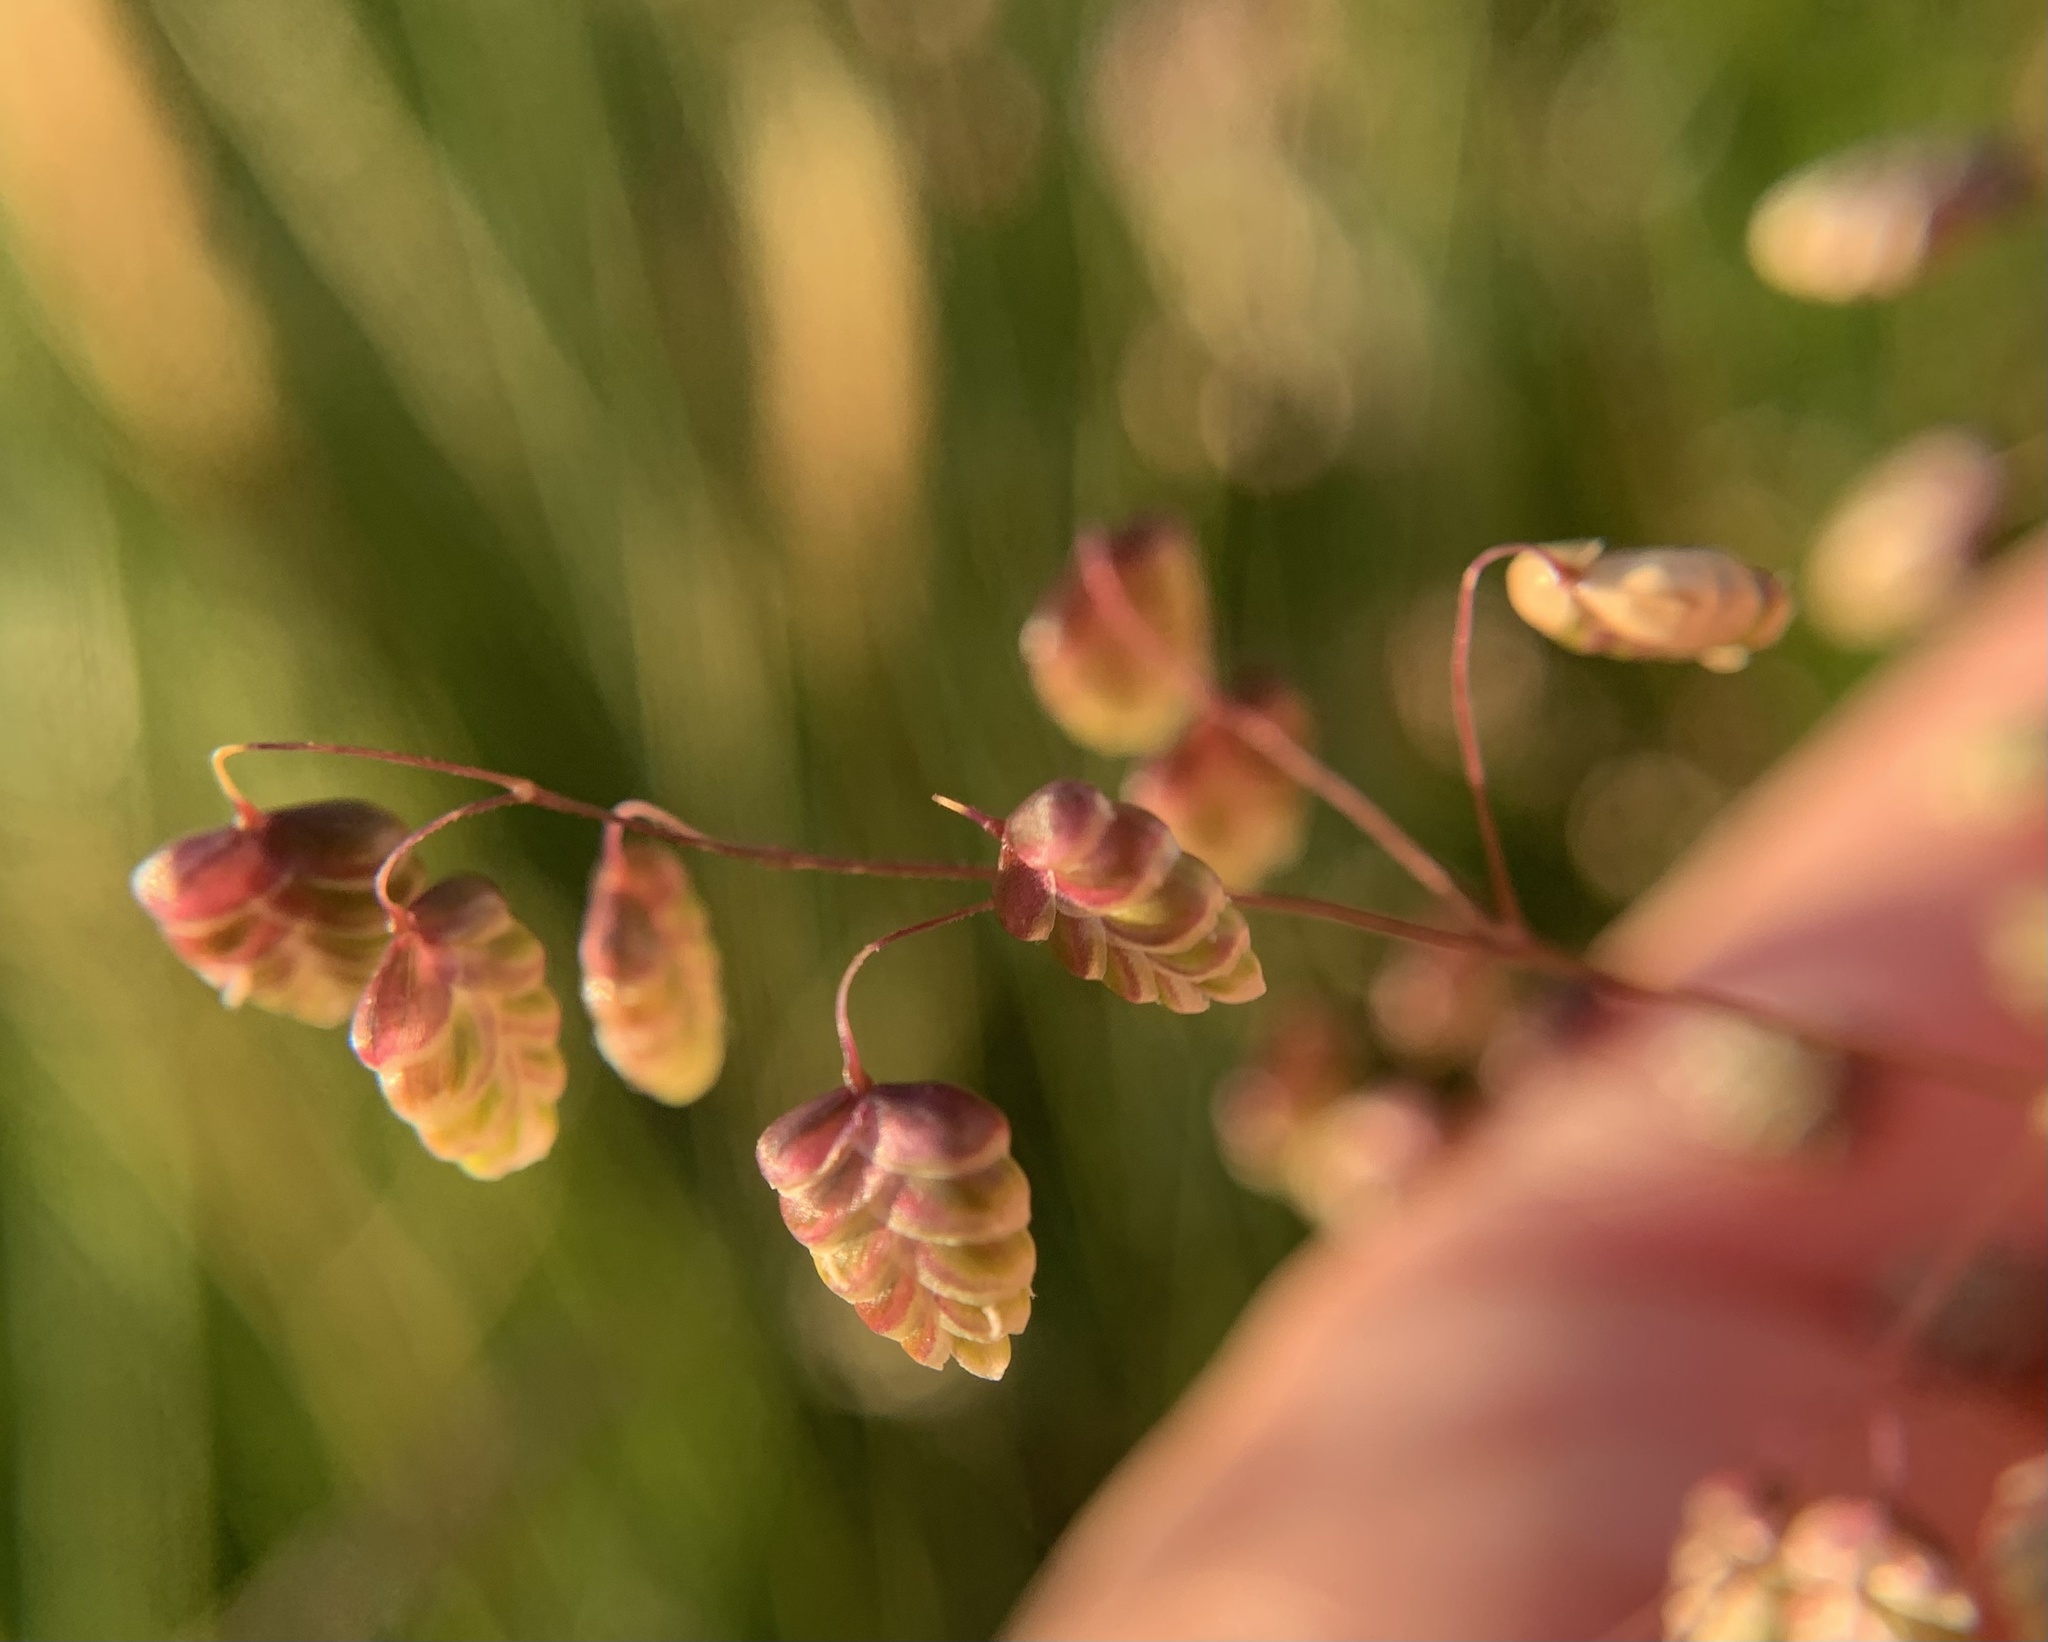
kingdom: Plantae
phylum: Tracheophyta
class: Liliopsida
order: Poales
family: Poaceae
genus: Briza
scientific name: Briza media
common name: Quaking grass
